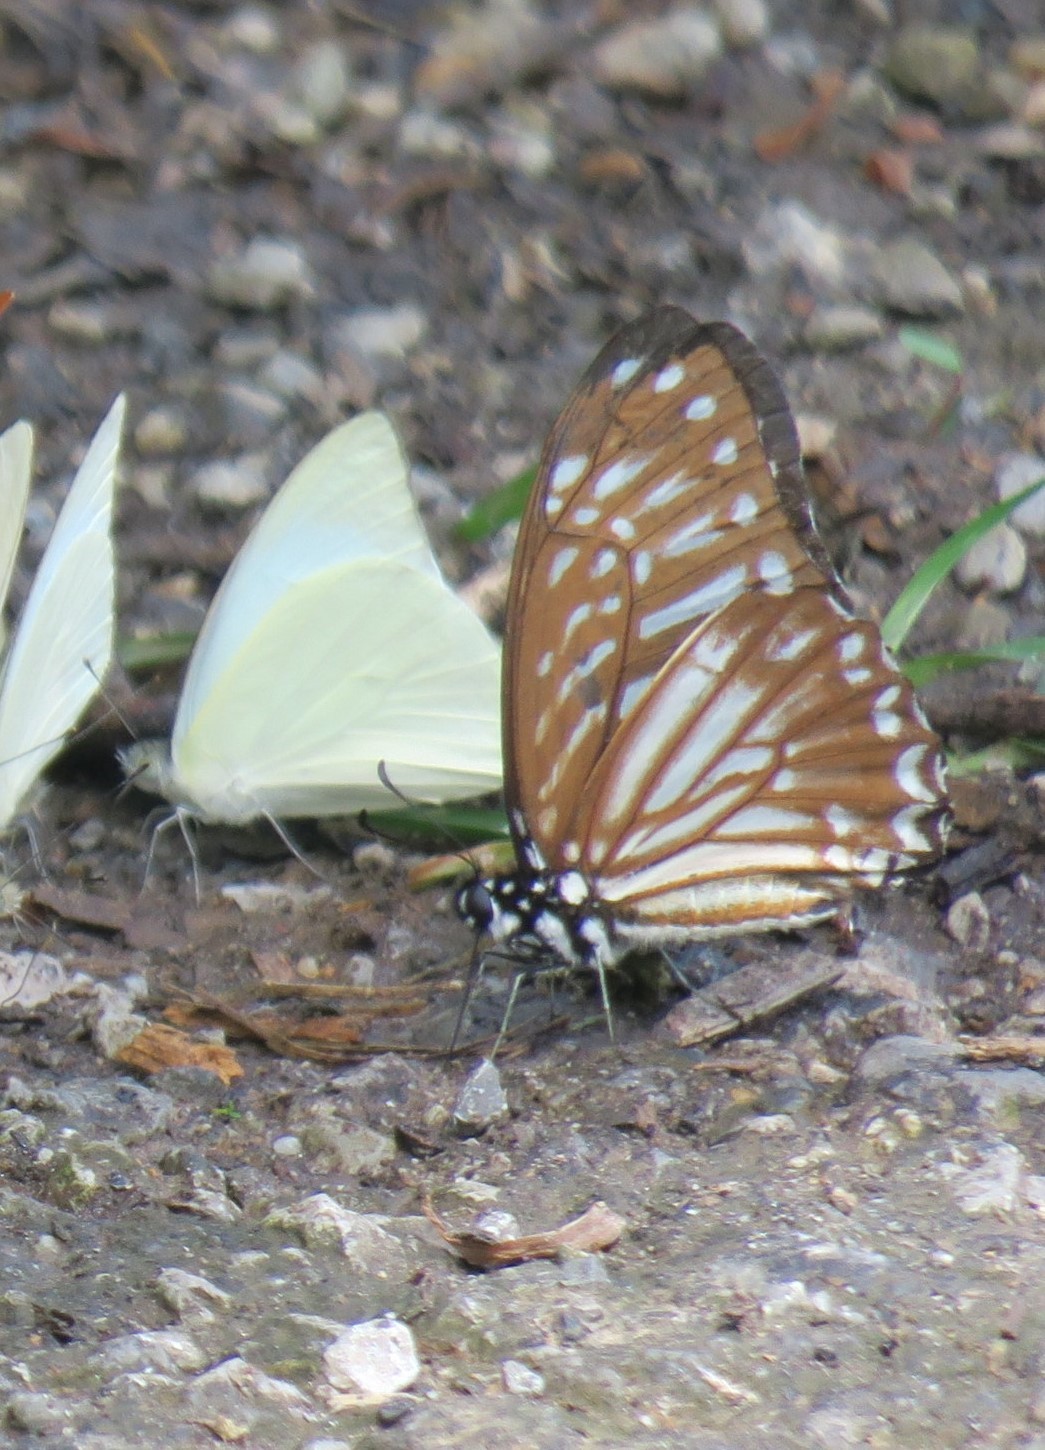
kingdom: Animalia
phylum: Arthropoda
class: Insecta
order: Lepidoptera
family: Papilionidae
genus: Graphium
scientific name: Graphium ramaceus
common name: Pendlebury's zebra
